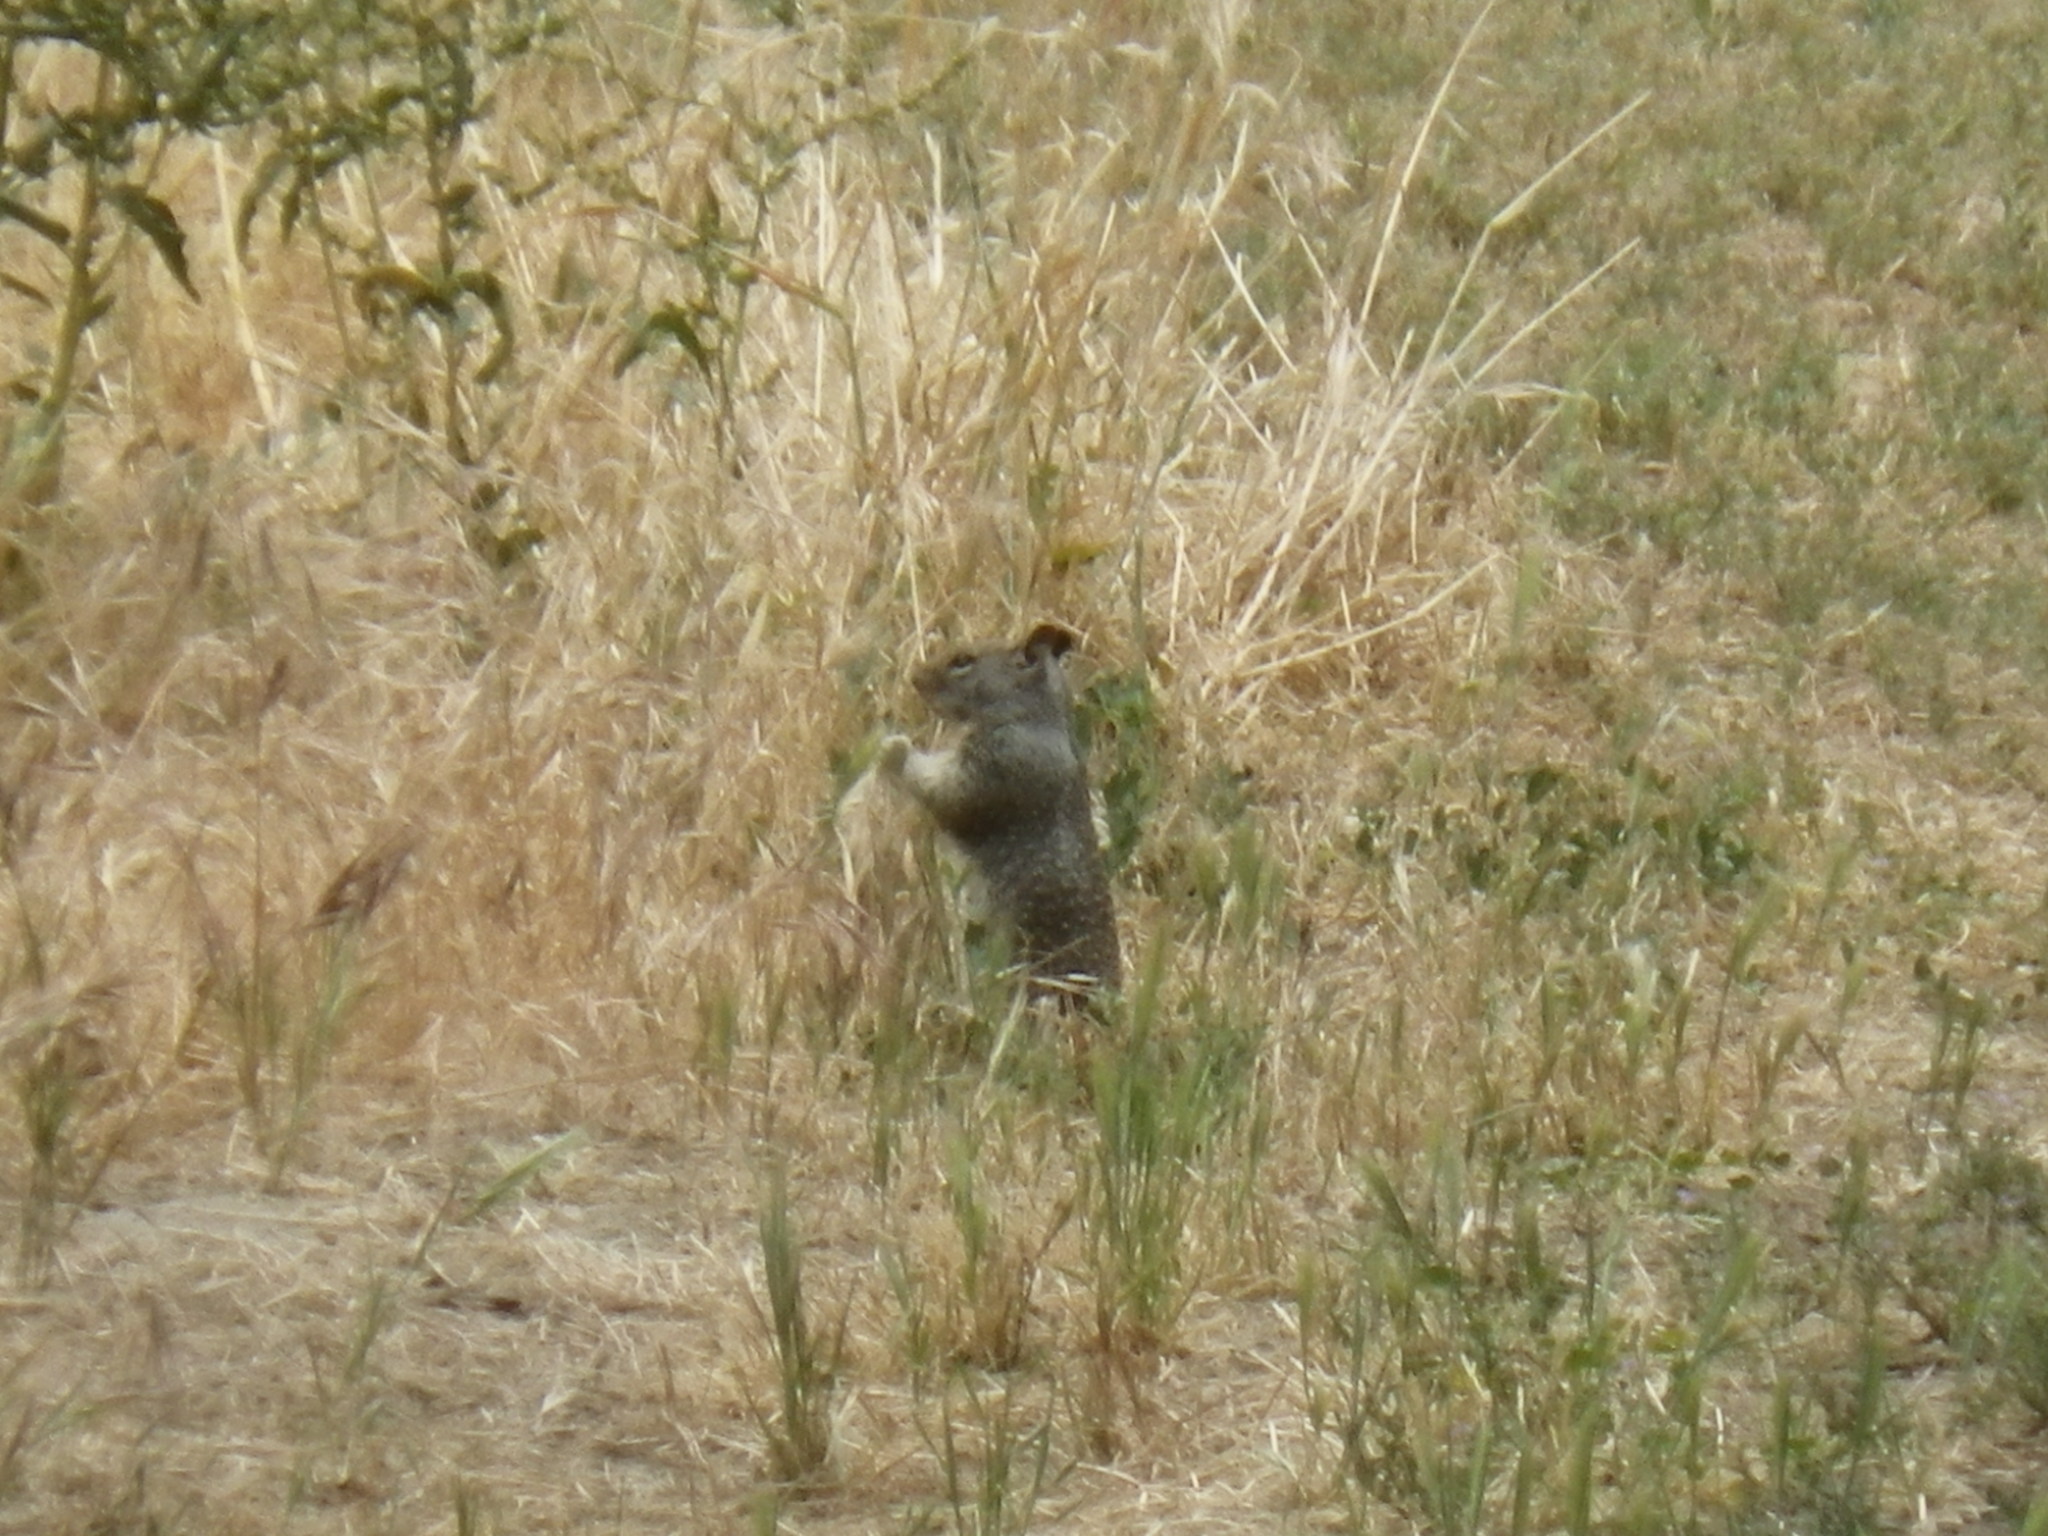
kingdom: Animalia
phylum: Chordata
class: Mammalia
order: Rodentia
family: Sciuridae
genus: Otospermophilus
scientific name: Otospermophilus beecheyi
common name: California ground squirrel
